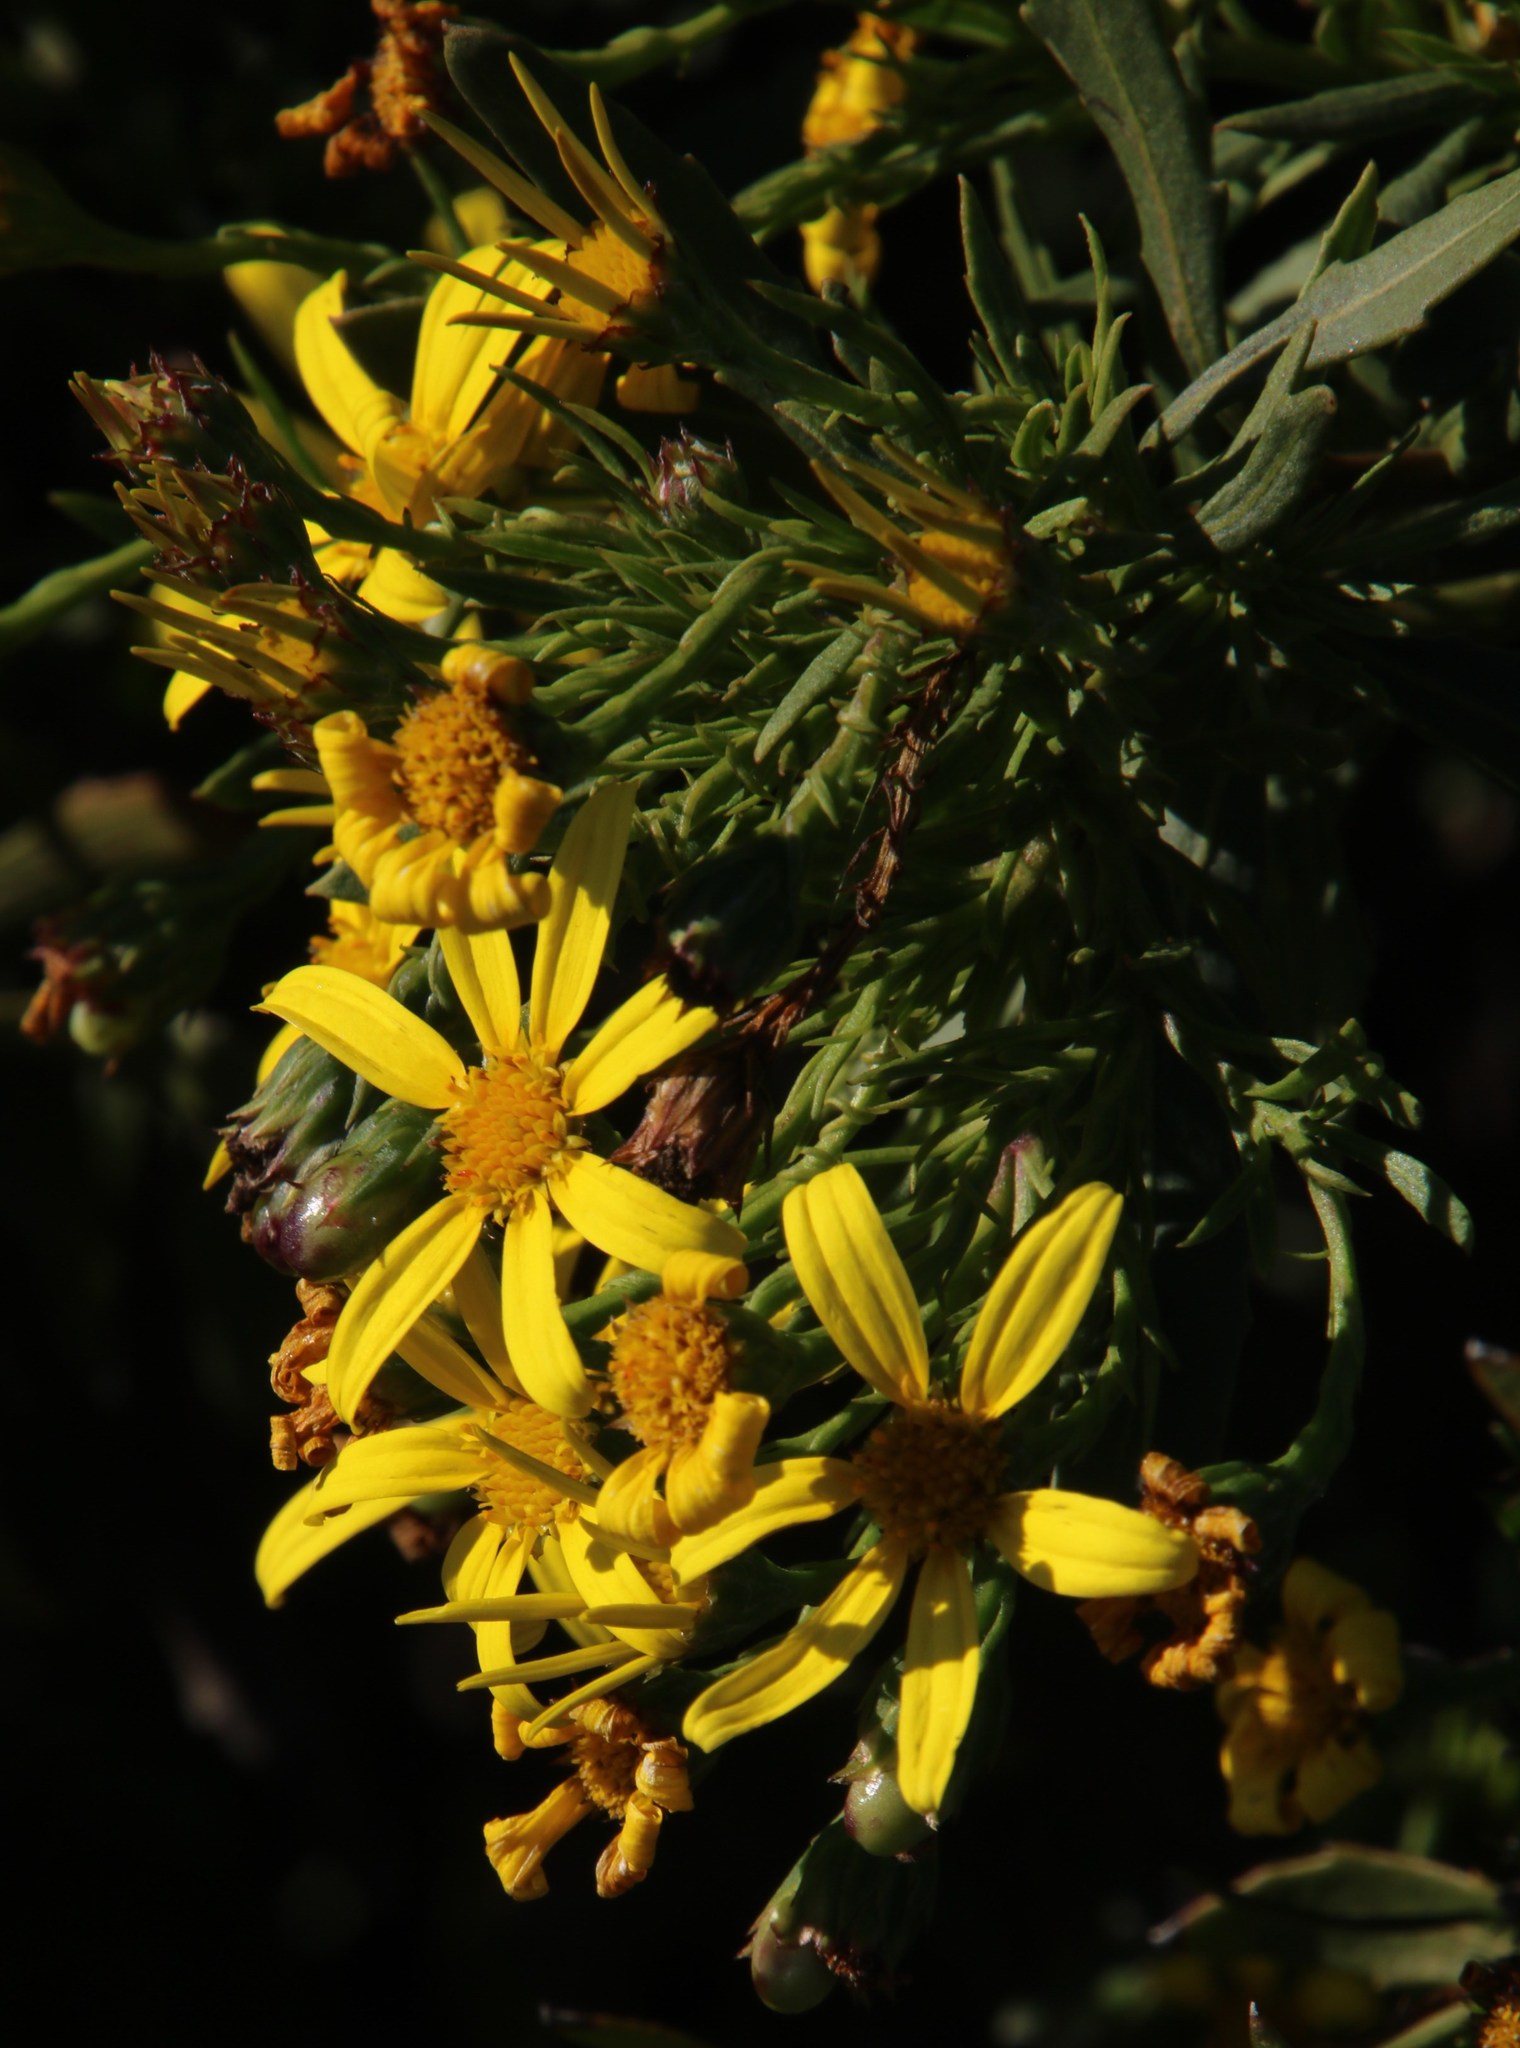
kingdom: Plantae
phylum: Tracheophyta
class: Magnoliopsida
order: Asterales
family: Asteraceae
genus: Osteospermum
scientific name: Osteospermum moniliferum
